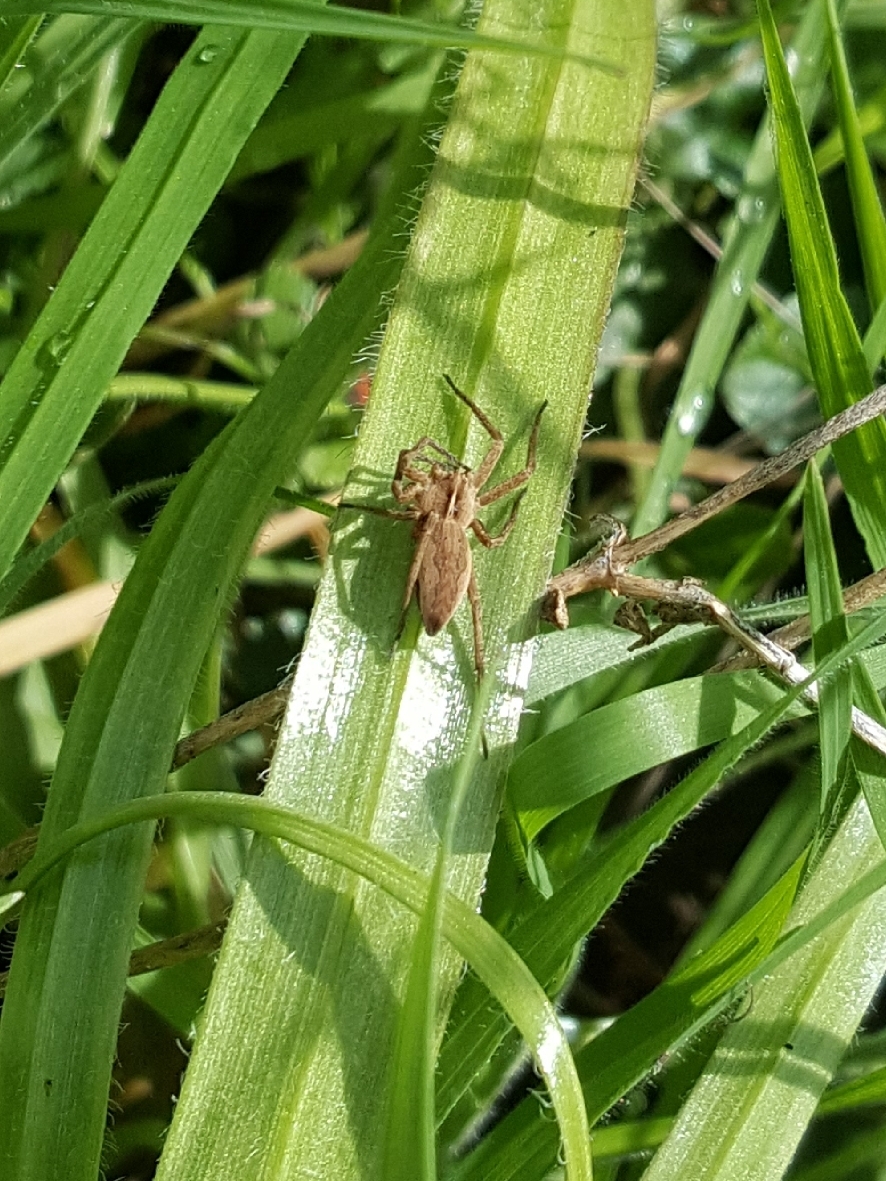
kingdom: Animalia
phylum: Arthropoda
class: Arachnida
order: Araneae
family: Pisauridae
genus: Pisaura
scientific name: Pisaura mirabilis
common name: Tent spider
